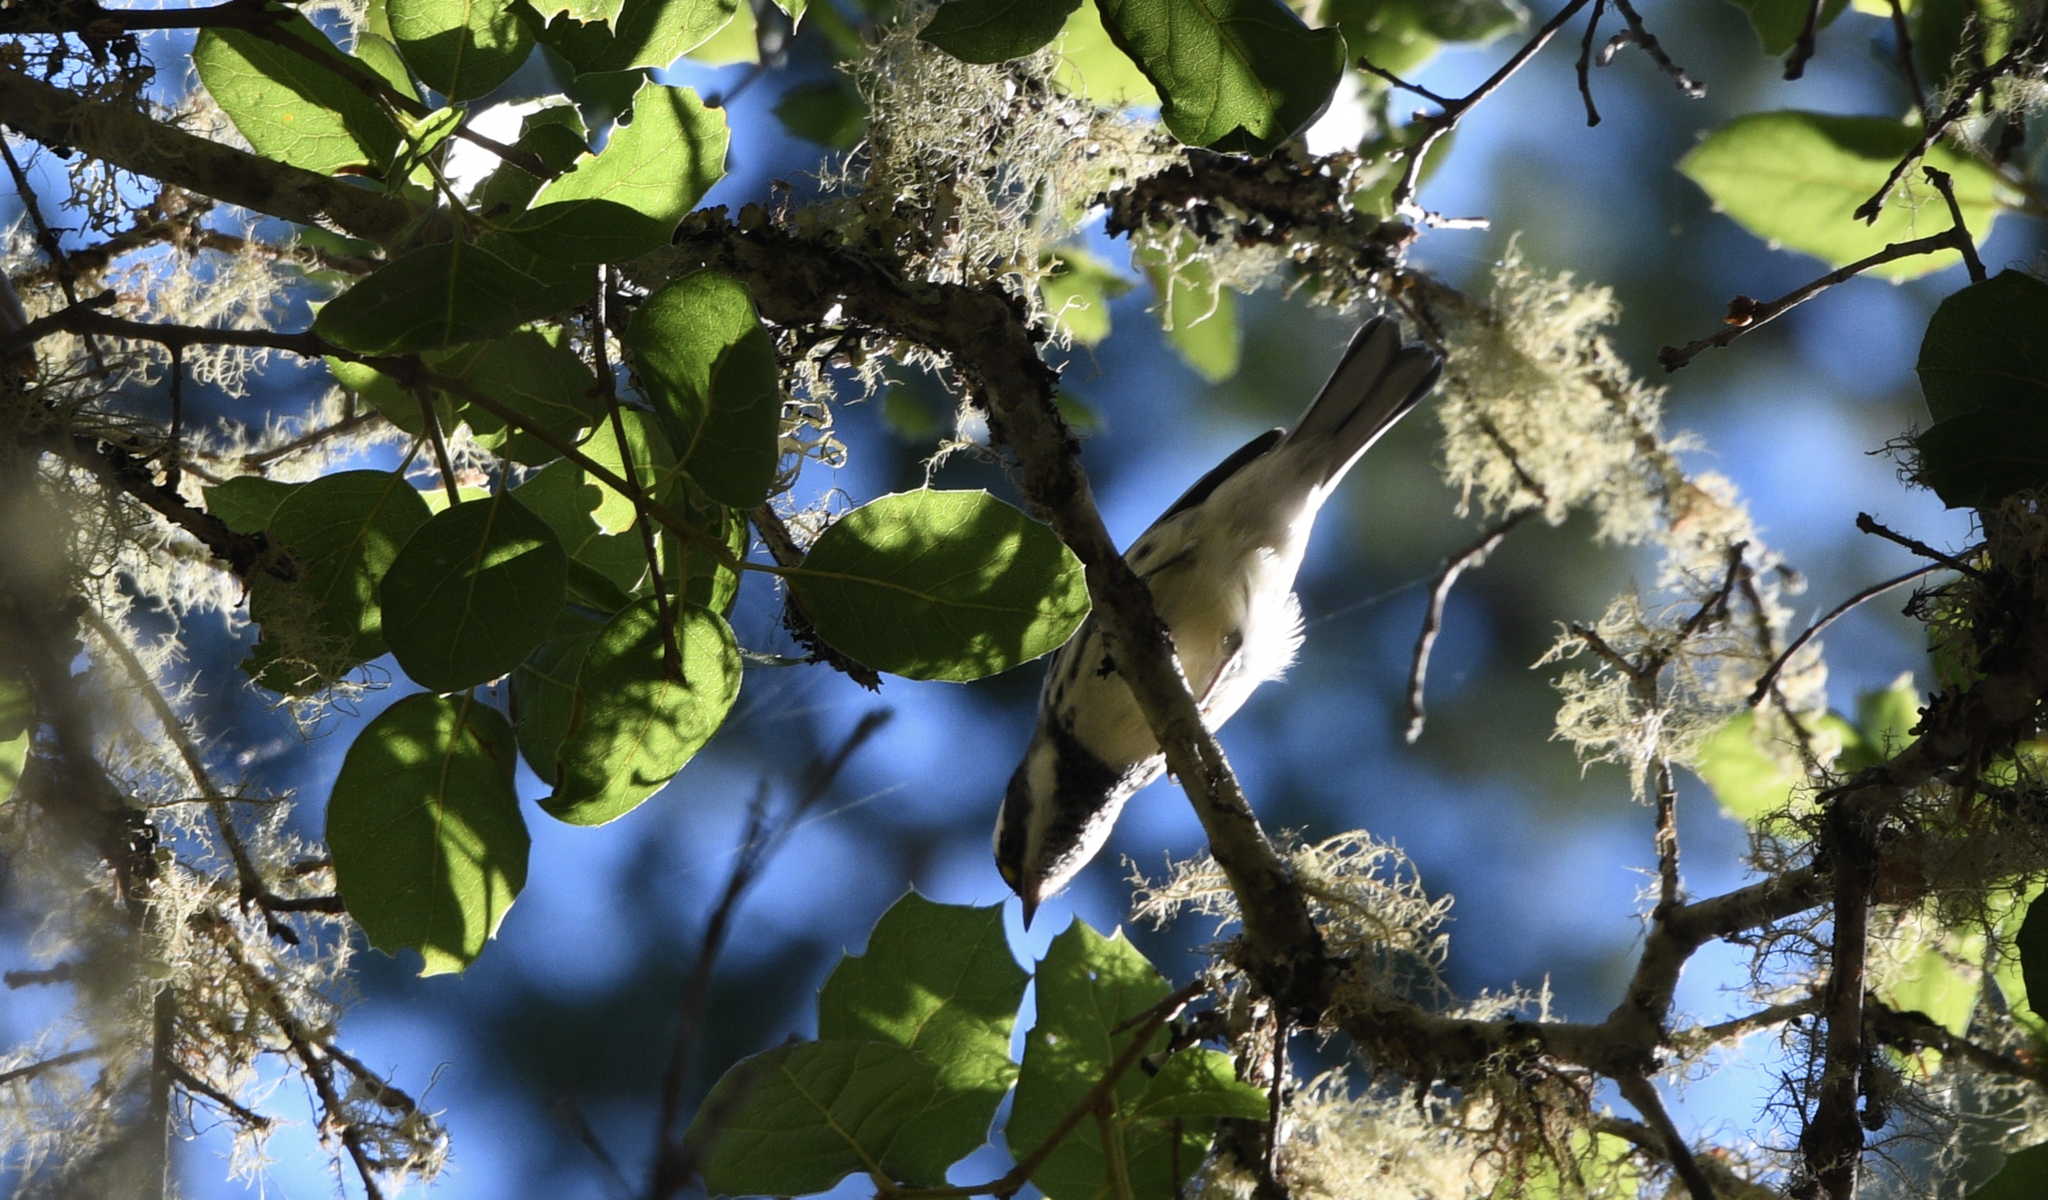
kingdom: Animalia
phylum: Chordata
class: Aves
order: Passeriformes
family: Parulidae
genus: Setophaga
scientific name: Setophaga nigrescens
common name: Black-throated gray warbler
